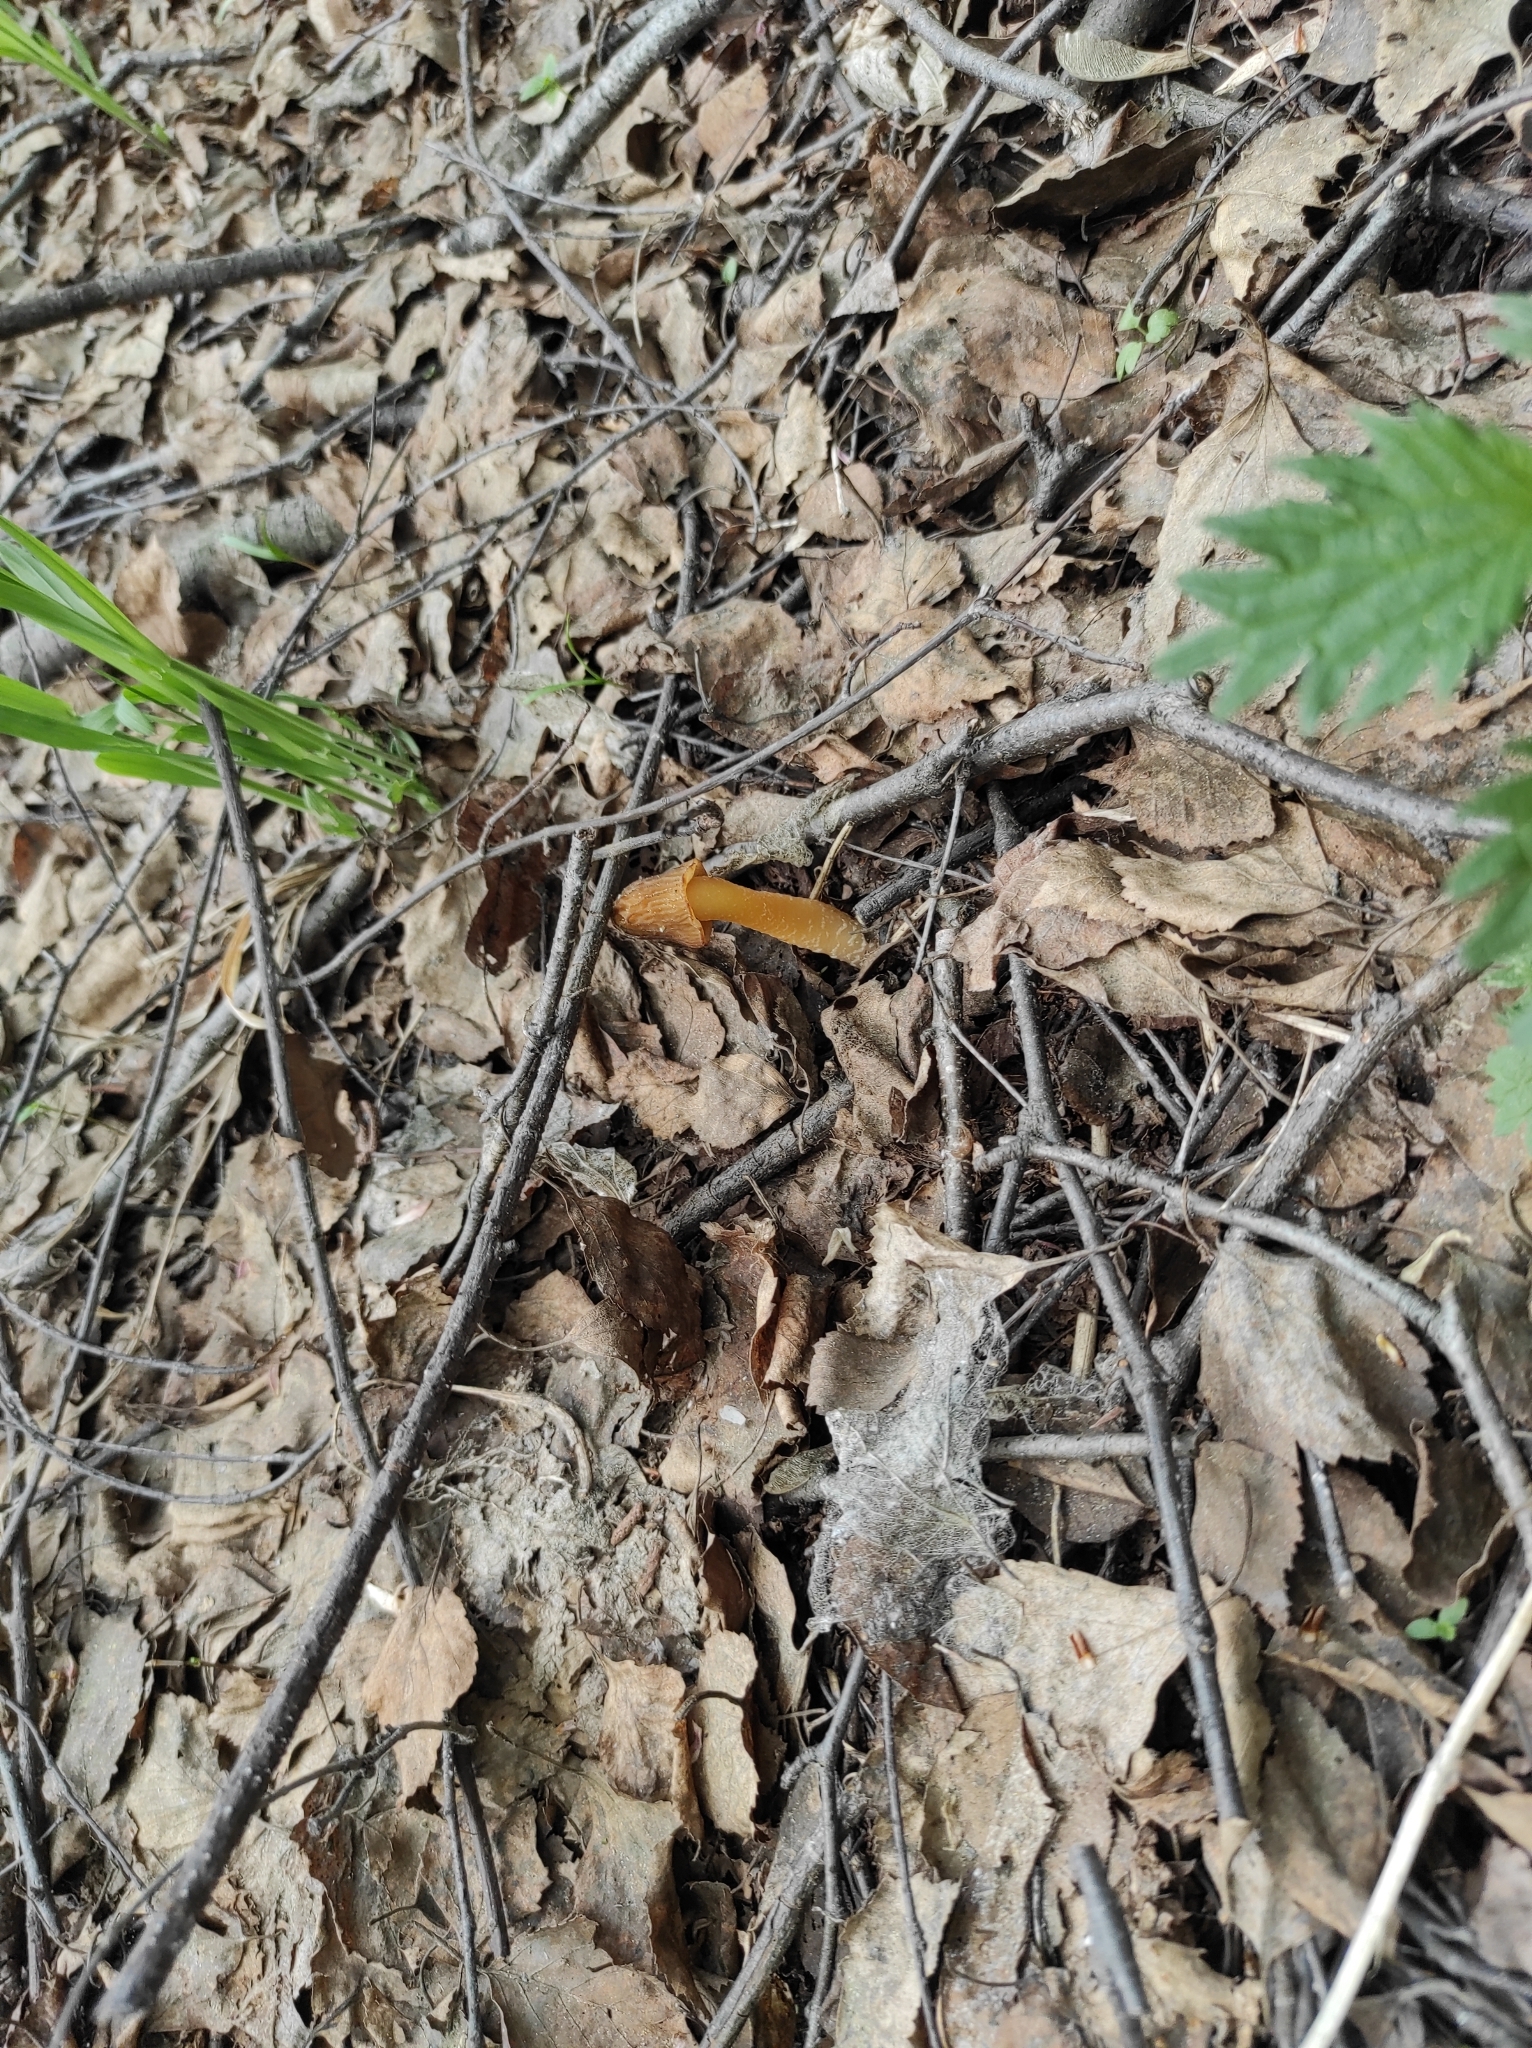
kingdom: Fungi
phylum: Ascomycota
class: Pezizomycetes
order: Pezizales
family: Morchellaceae
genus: Verpa
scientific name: Verpa bohemica
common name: Wrinkled thimble morel
